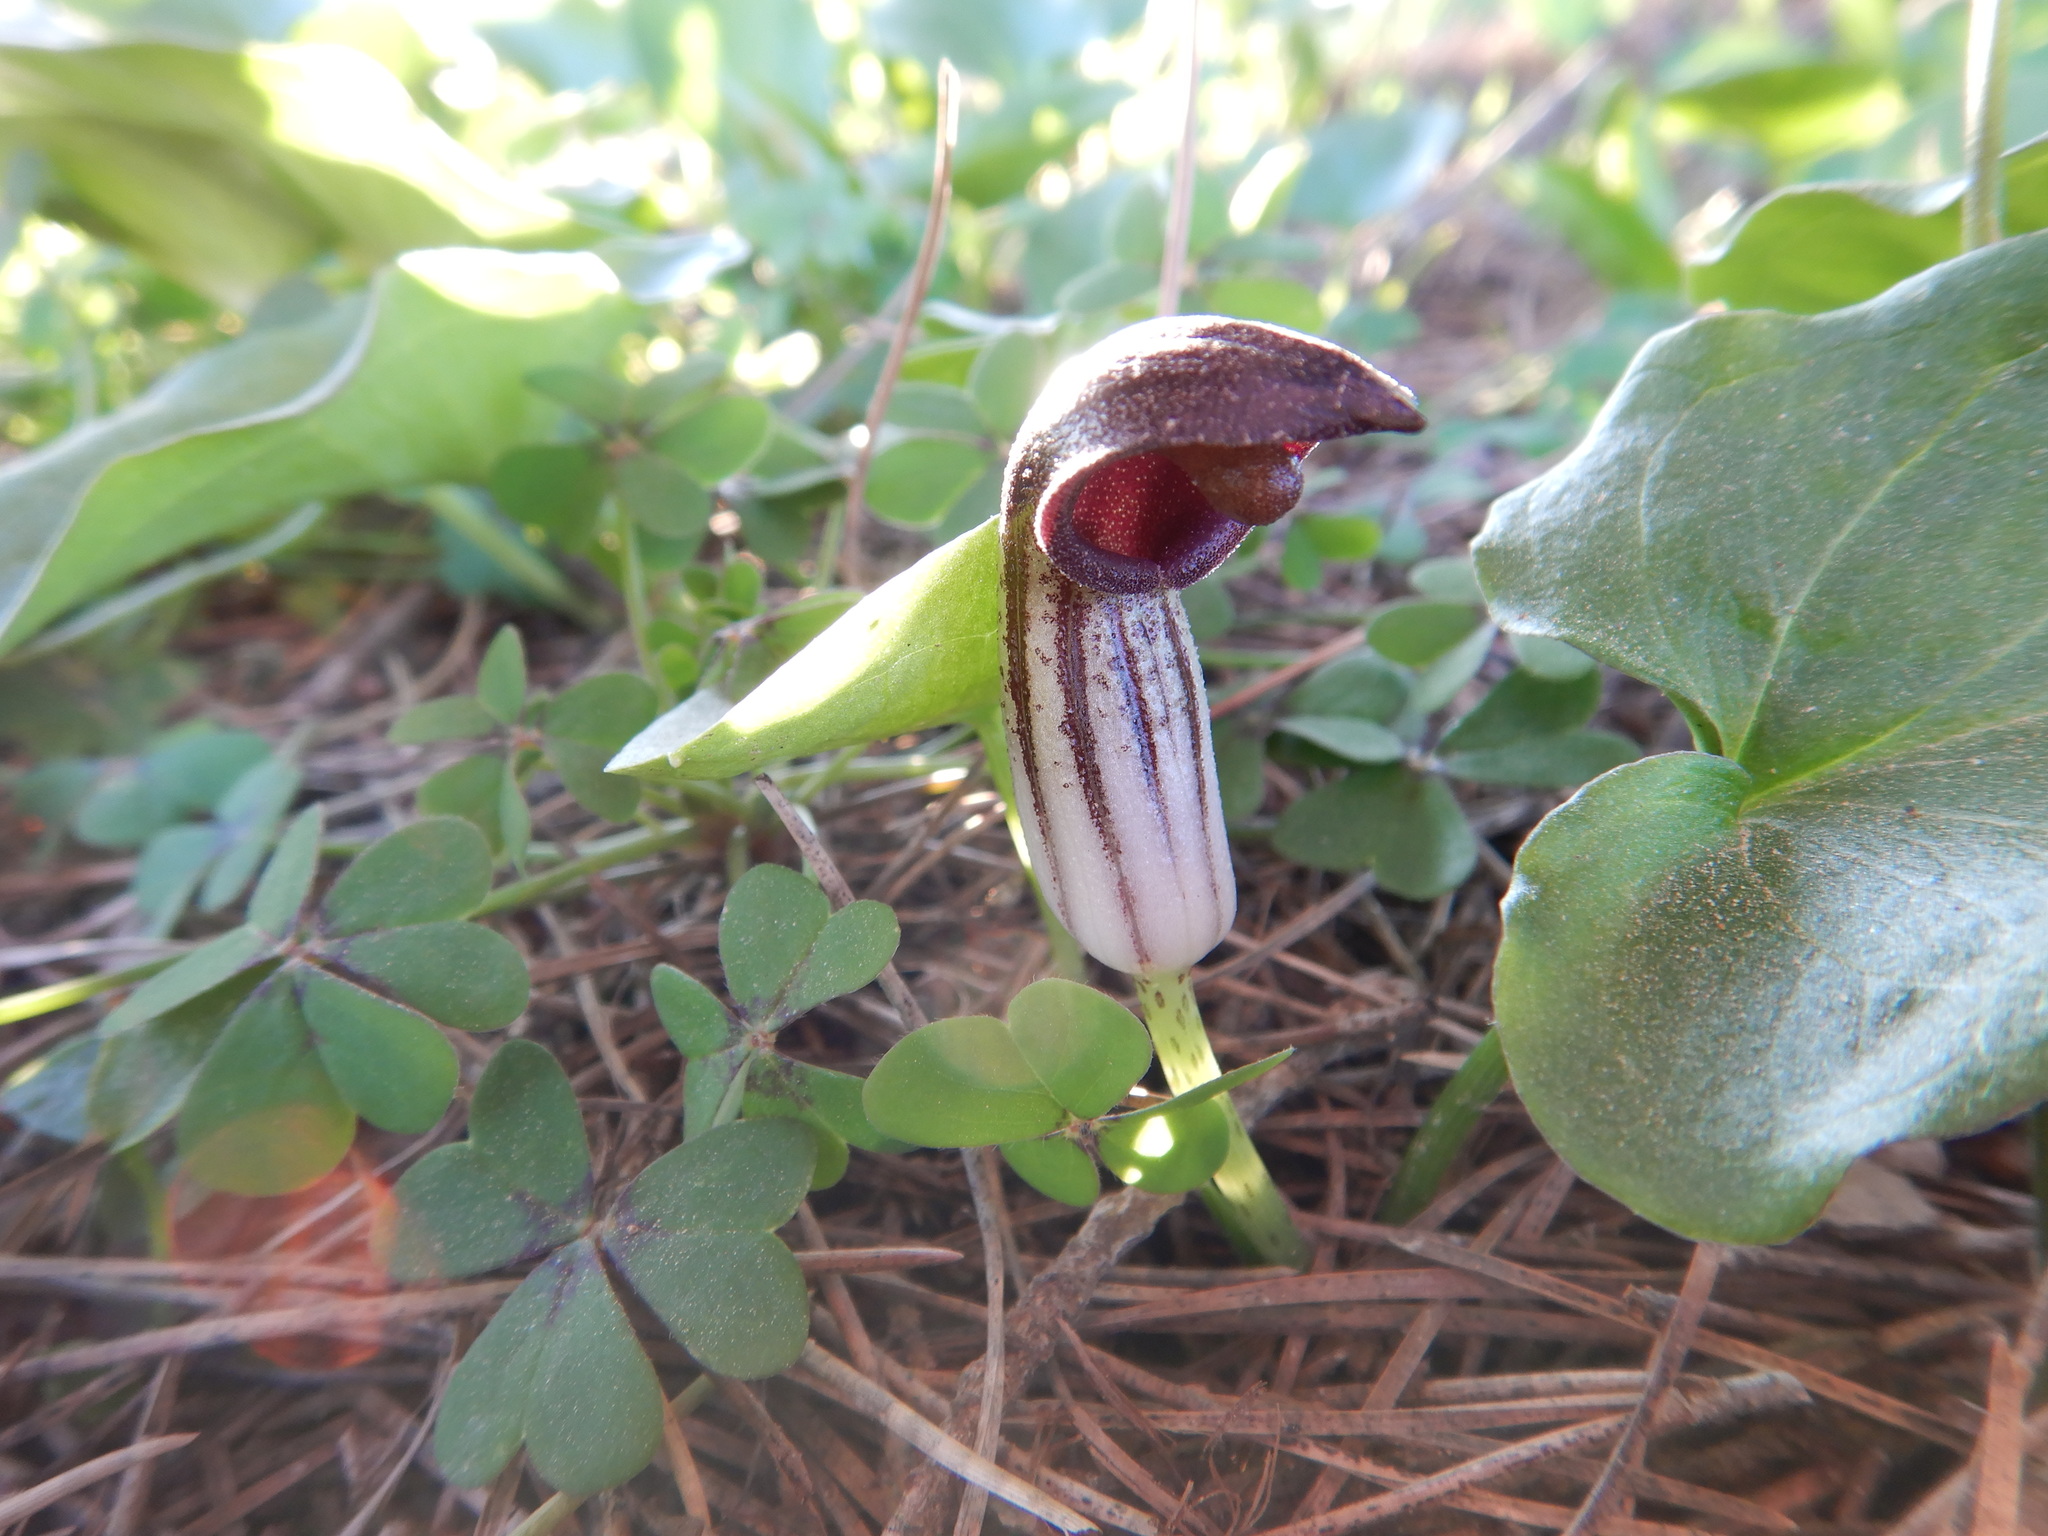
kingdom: Plantae
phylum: Tracheophyta
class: Liliopsida
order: Alismatales
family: Araceae
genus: Arisarum
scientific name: Arisarum simorrhinum
